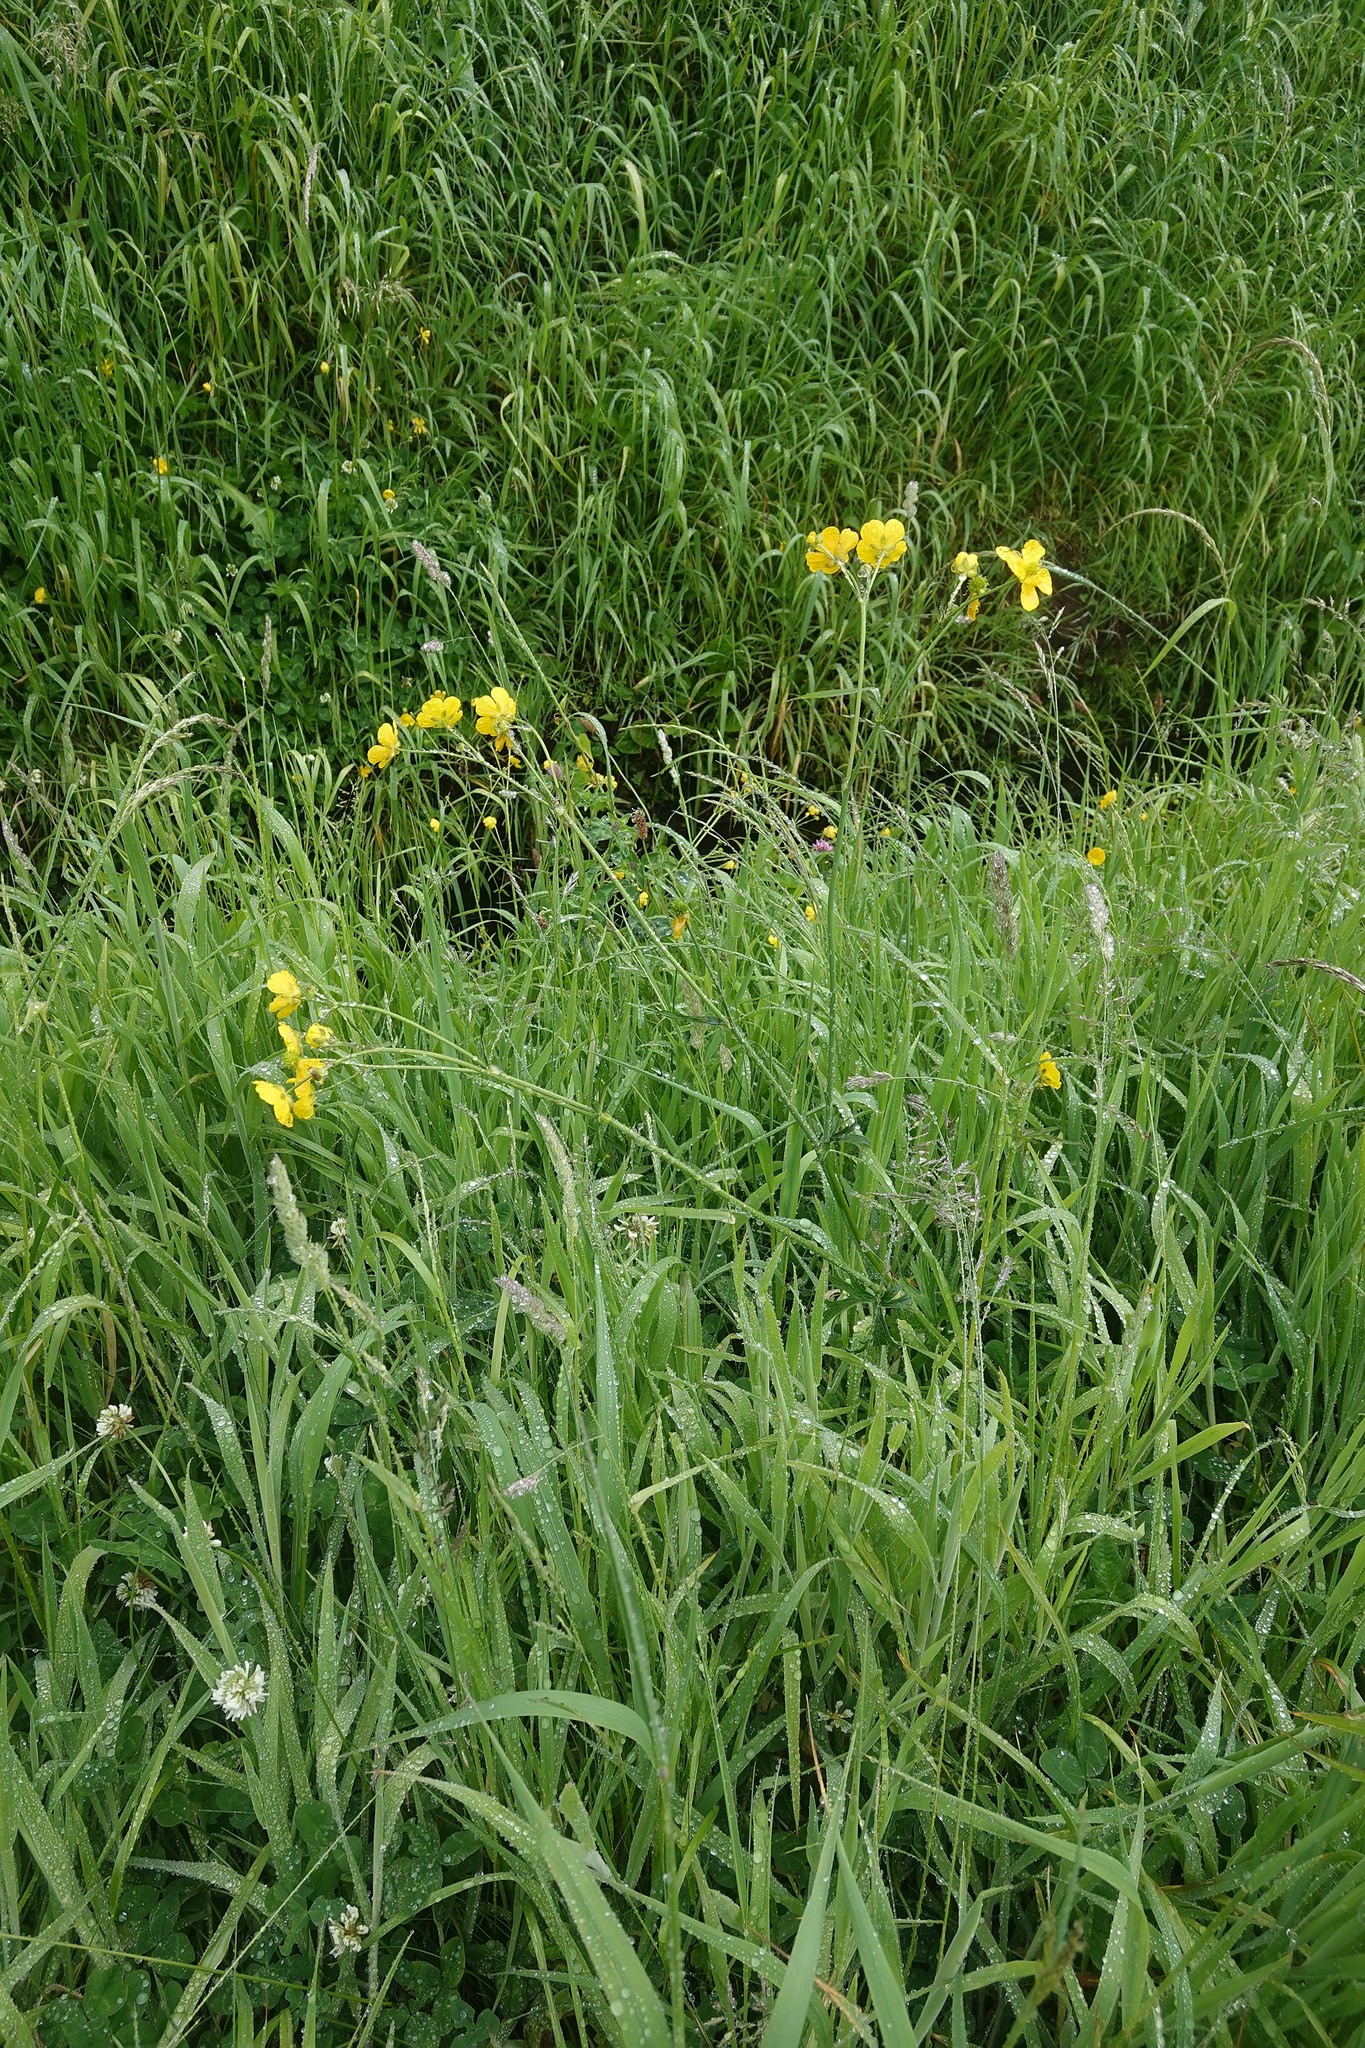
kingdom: Plantae
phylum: Tracheophyta
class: Magnoliopsida
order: Ranunculales
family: Ranunculaceae
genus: Ranunculus
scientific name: Ranunculus acris
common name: Meadow buttercup
